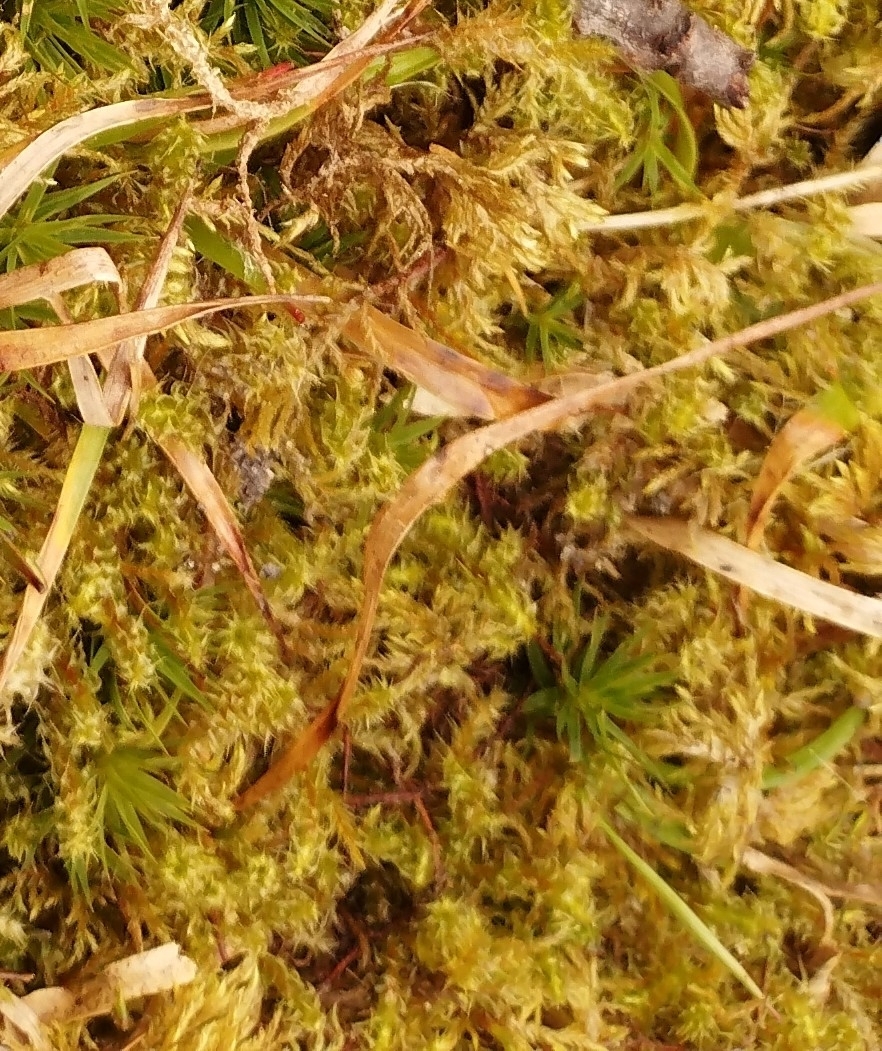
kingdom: Plantae
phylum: Bryophyta
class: Bryopsida
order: Hypnales
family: Hylocomiaceae
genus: Rhytidiadelphus
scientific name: Rhytidiadelphus squarrosus
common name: Springy turf-moss
